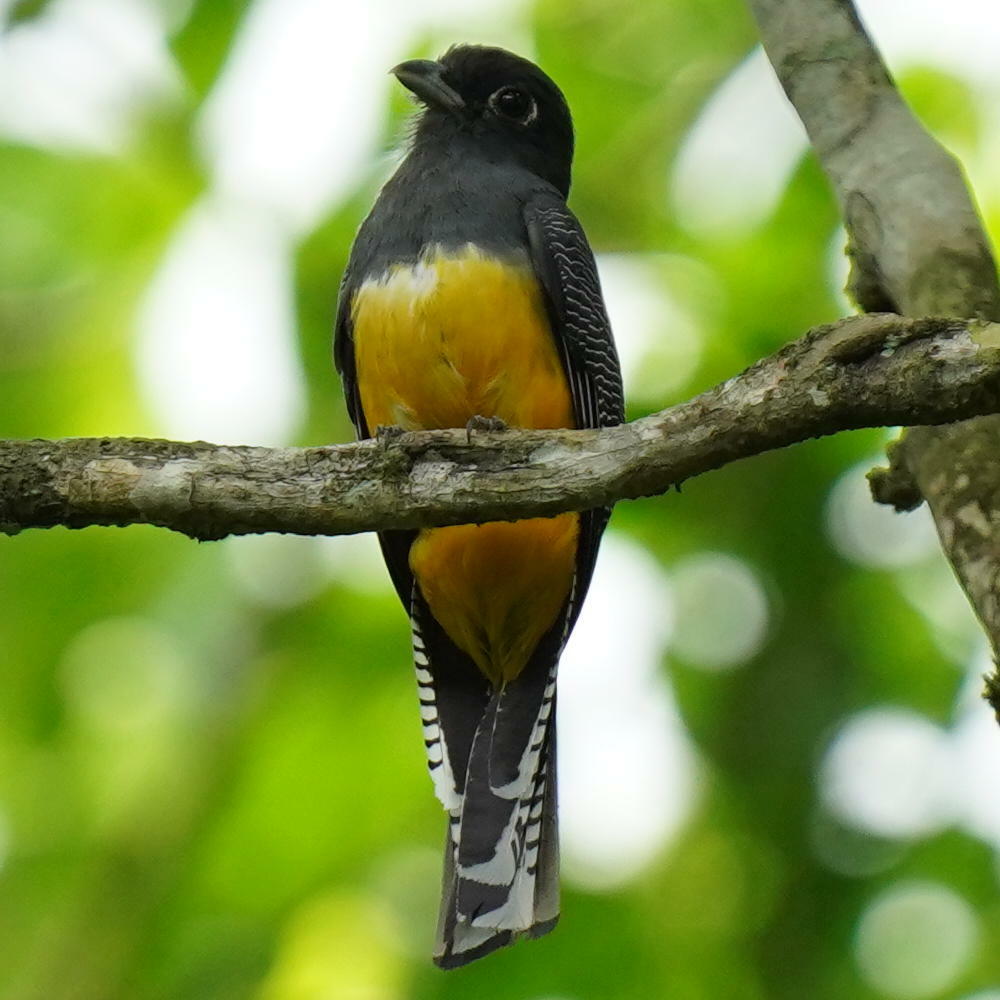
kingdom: Animalia
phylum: Chordata
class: Aves
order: Trogoniformes
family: Trogonidae
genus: Trogon
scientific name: Trogon caligatus
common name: Gartered trogon
